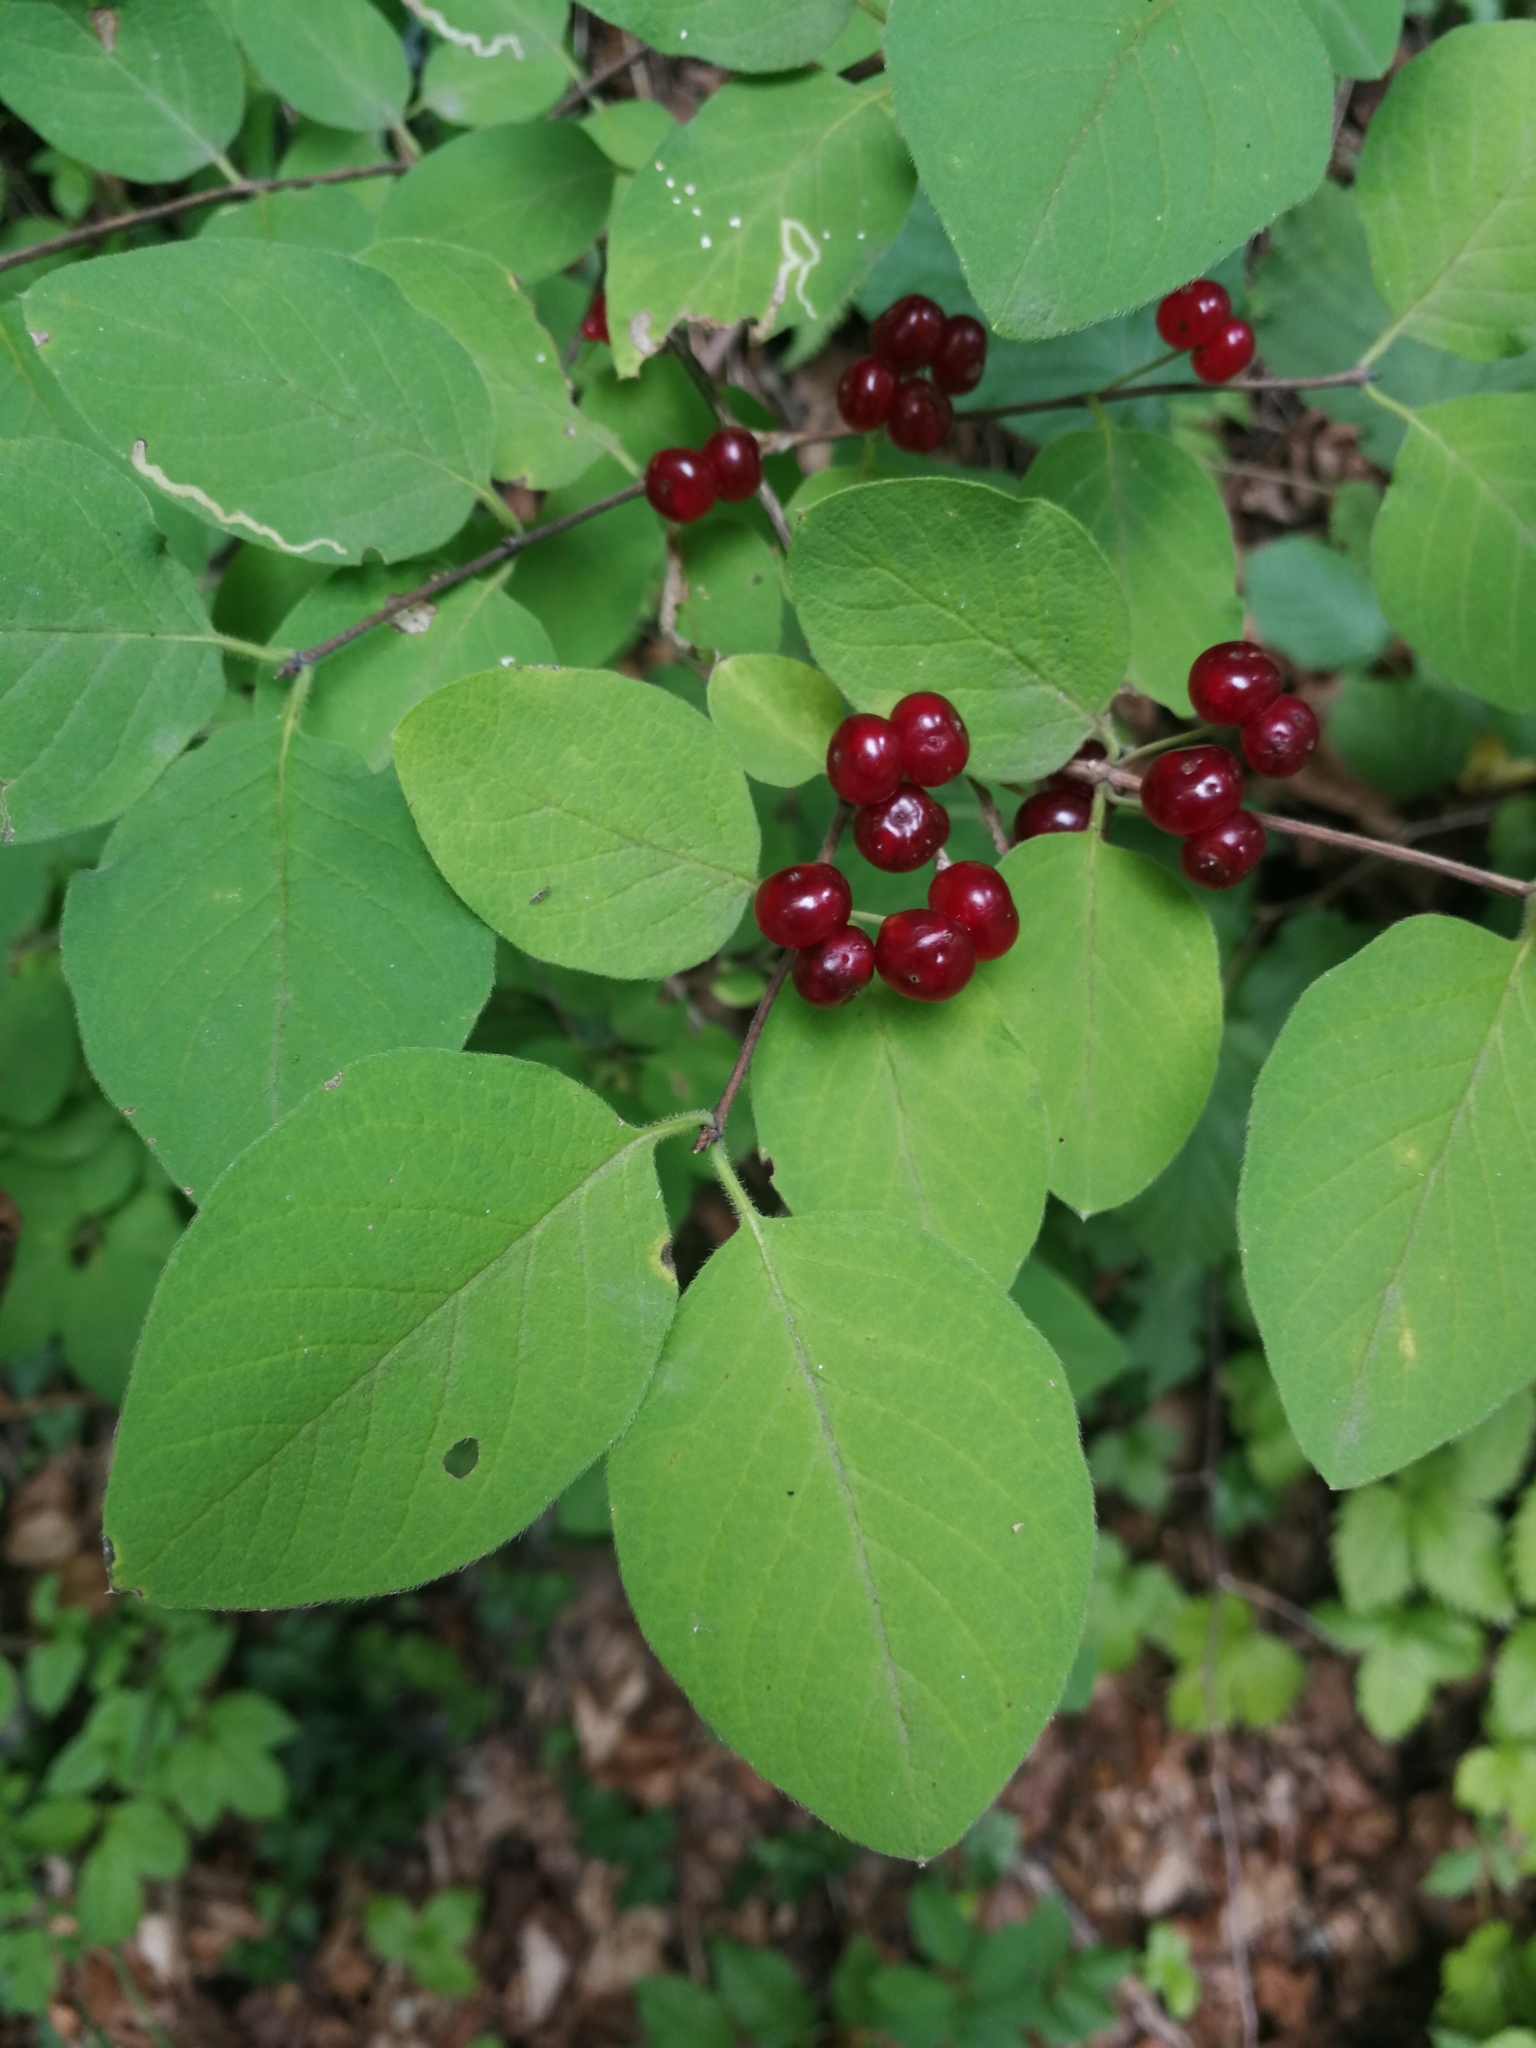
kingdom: Plantae
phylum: Tracheophyta
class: Magnoliopsida
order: Dipsacales
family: Caprifoliaceae
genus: Lonicera
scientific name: Lonicera xylosteum
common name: Fly honeysuckle
